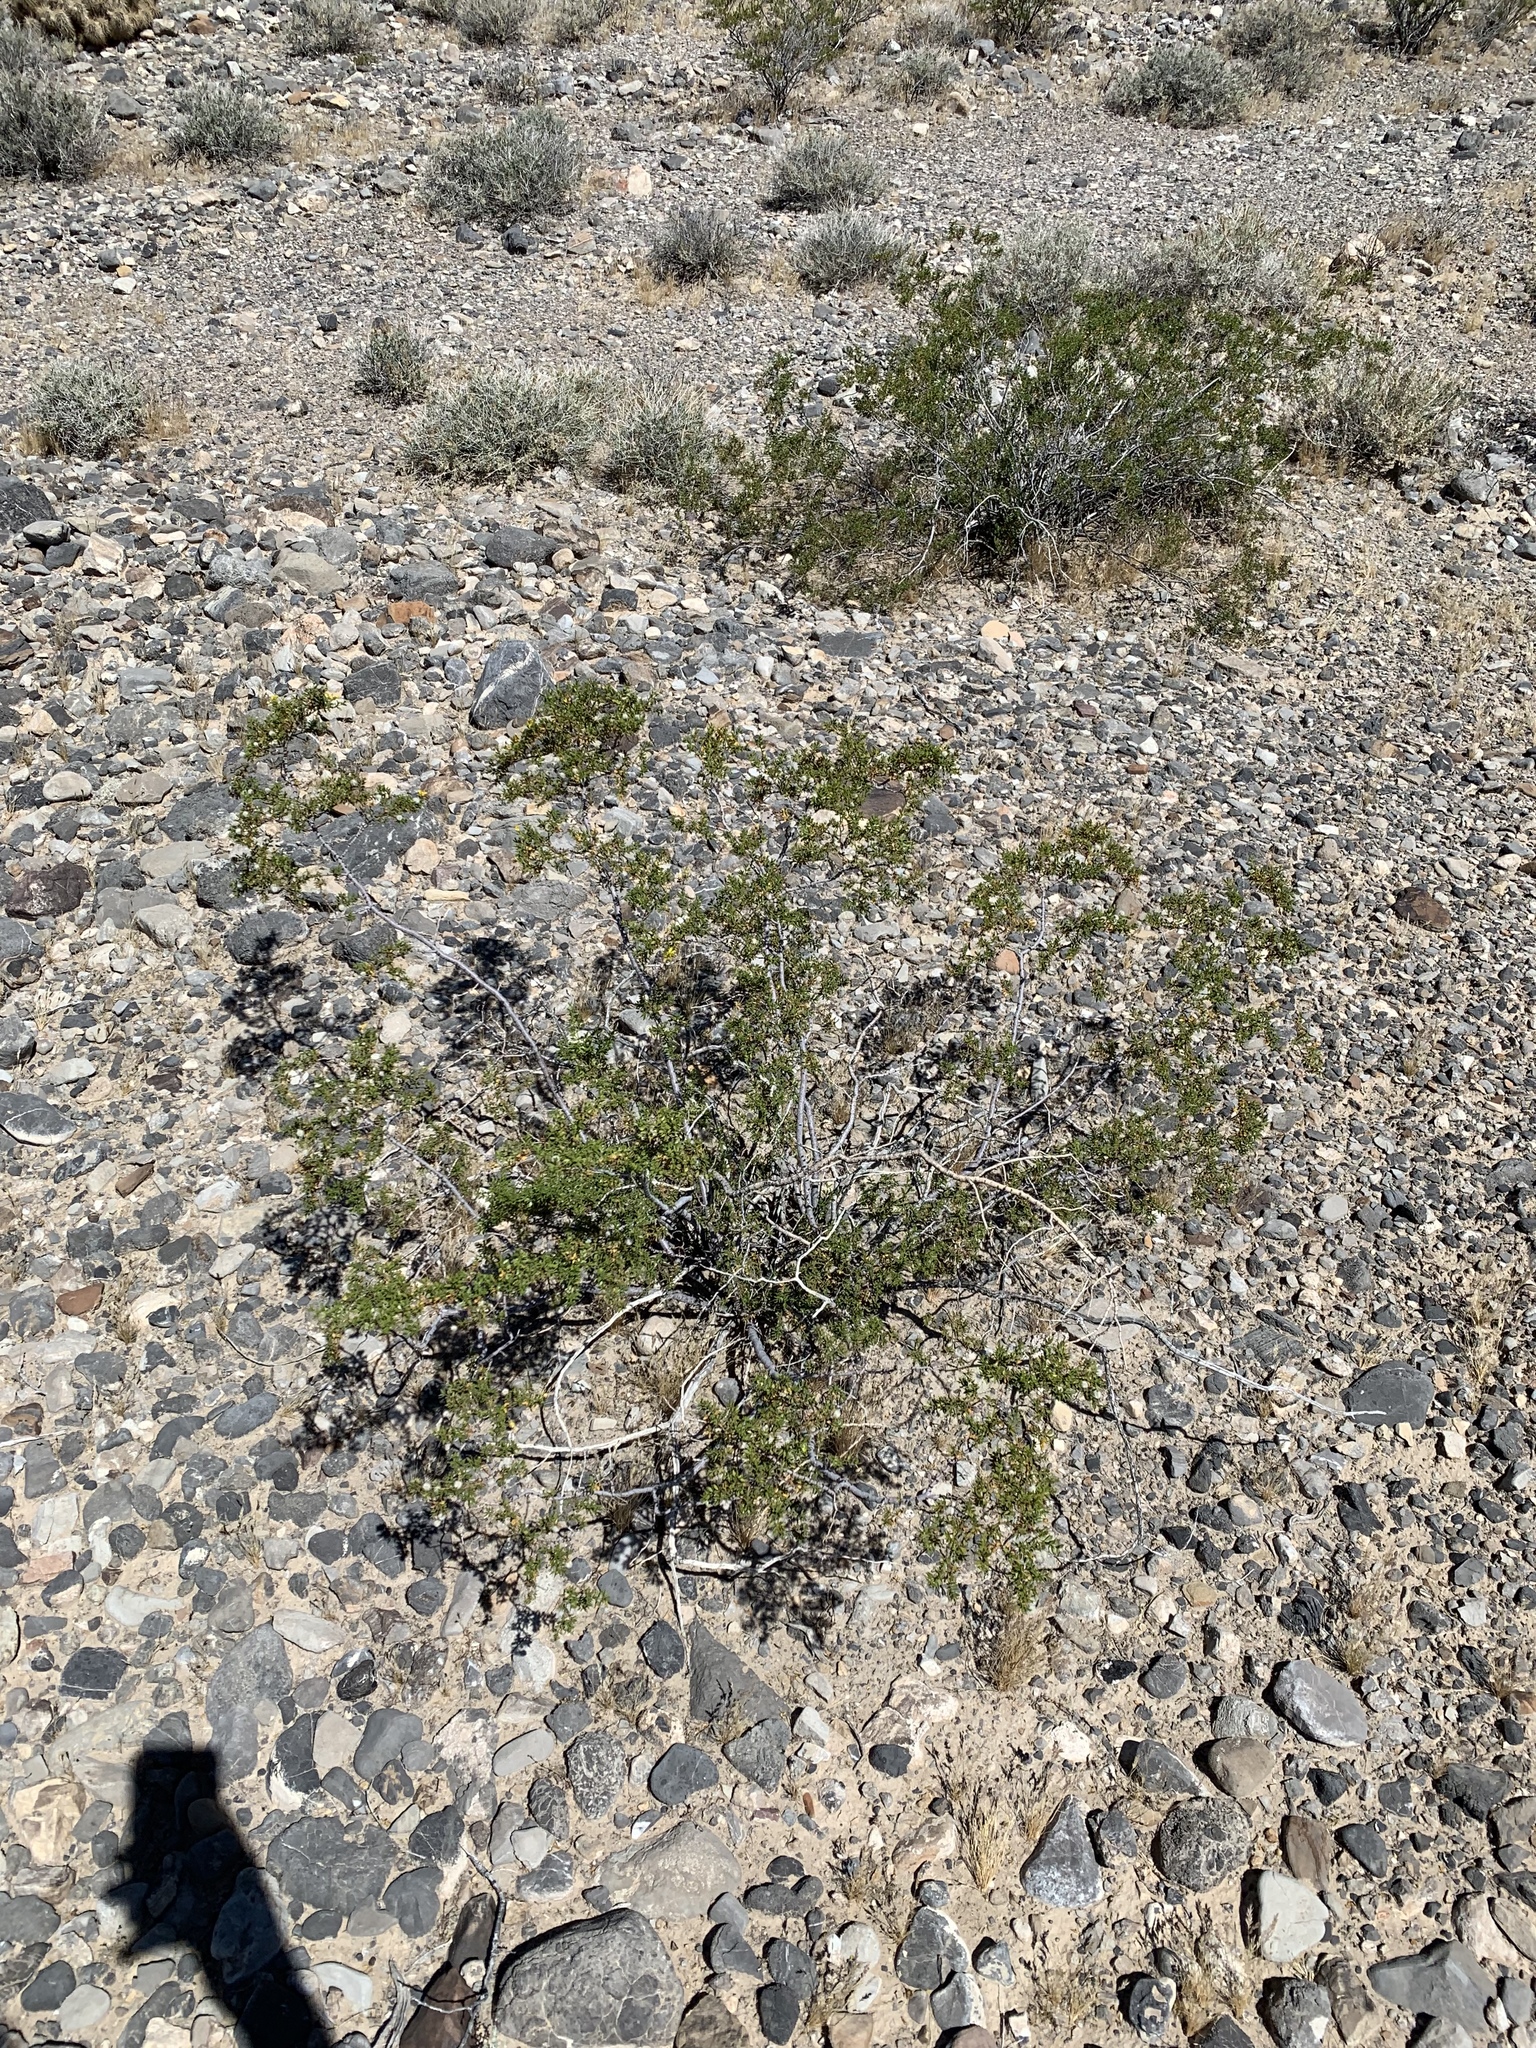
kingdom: Plantae
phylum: Tracheophyta
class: Magnoliopsida
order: Zygophyllales
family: Zygophyllaceae
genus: Larrea
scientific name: Larrea tridentata
